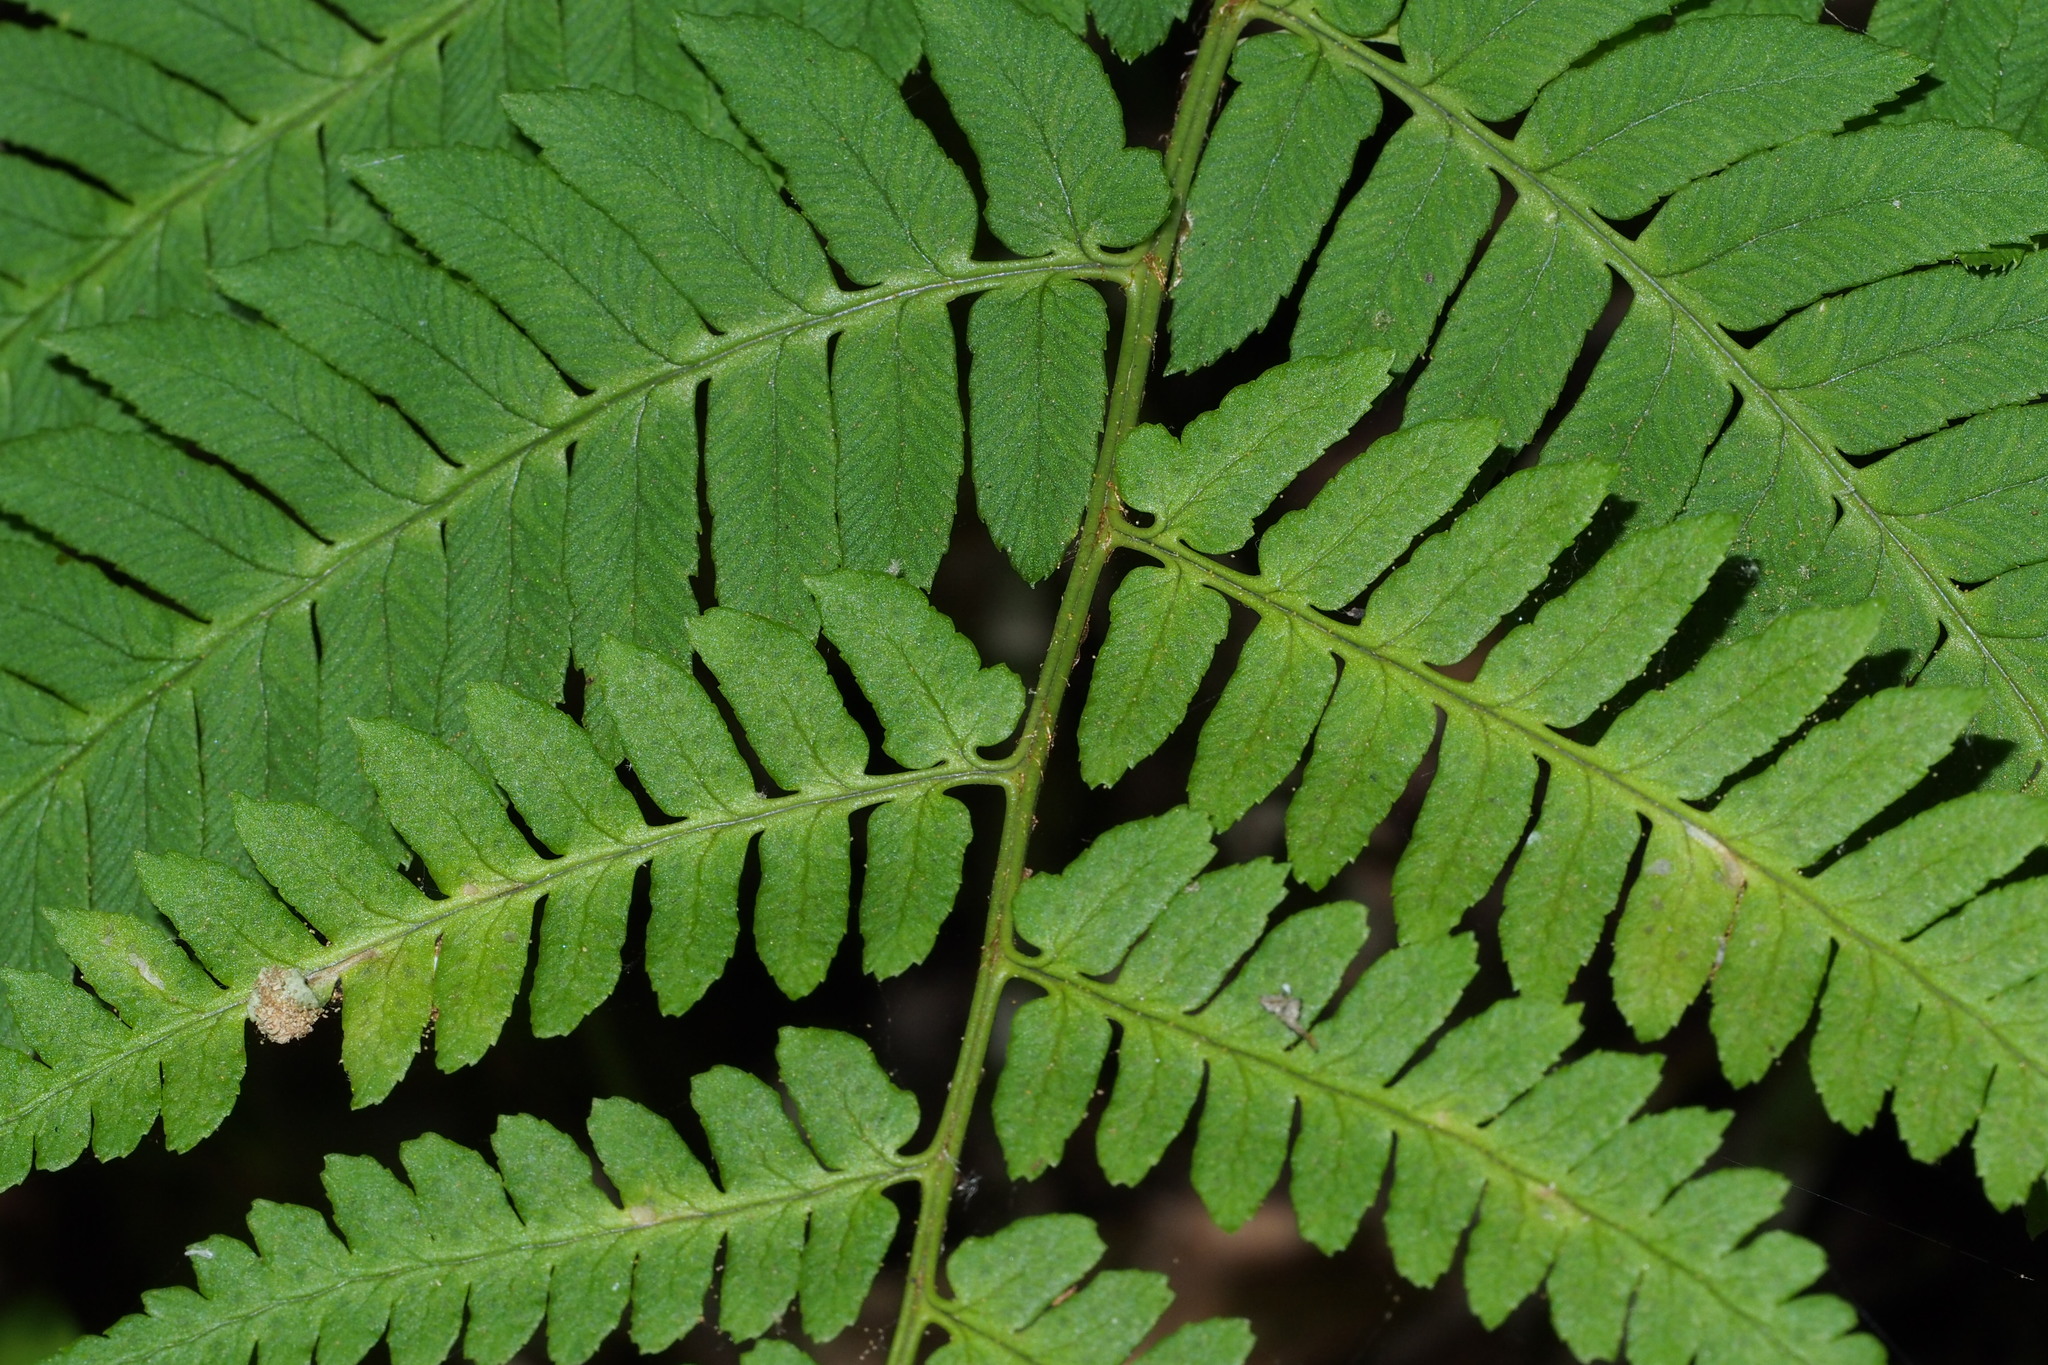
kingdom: Plantae
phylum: Tracheophyta
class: Polypodiopsida
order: Polypodiales
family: Dryopteridaceae
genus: Dryopteris
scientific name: Dryopteris lacera
